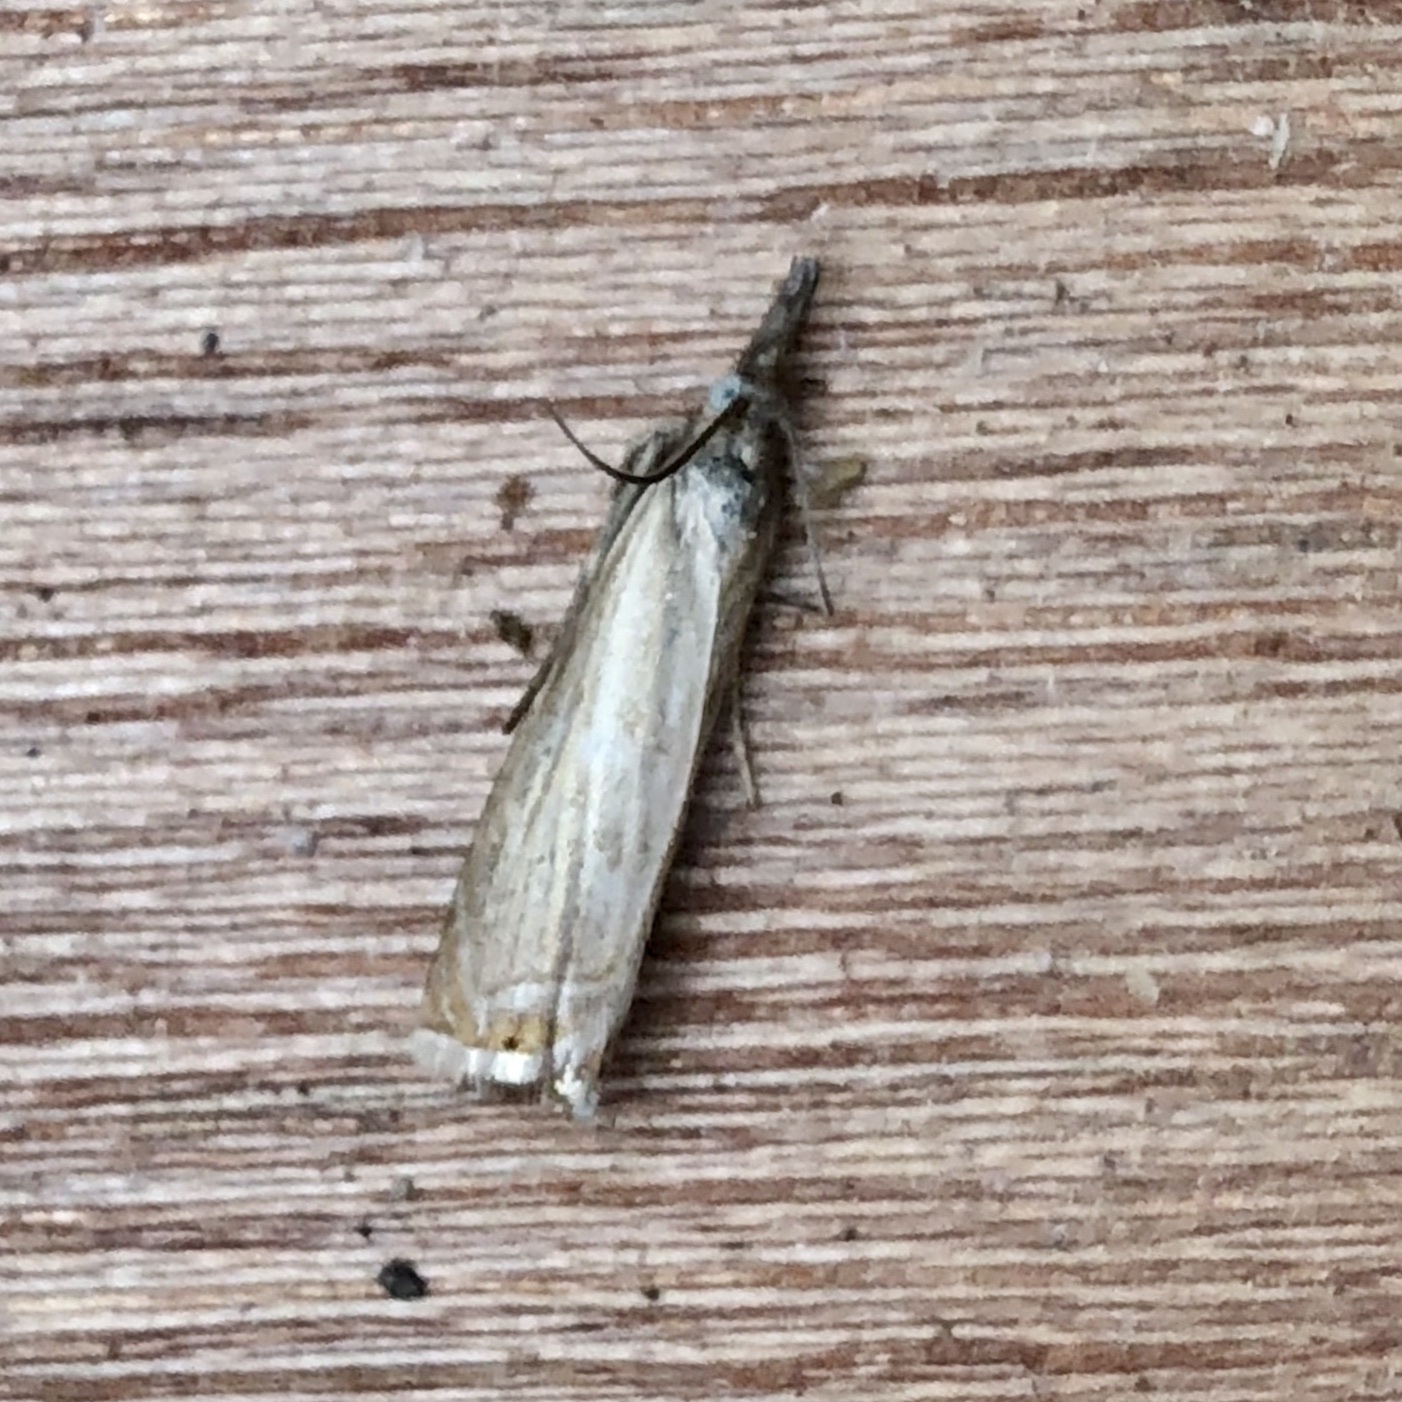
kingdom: Animalia
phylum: Arthropoda
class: Insecta
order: Lepidoptera
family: Crambidae
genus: Chrysoteuchia
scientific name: Chrysoteuchia culmella
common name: Garden grass-veneer
